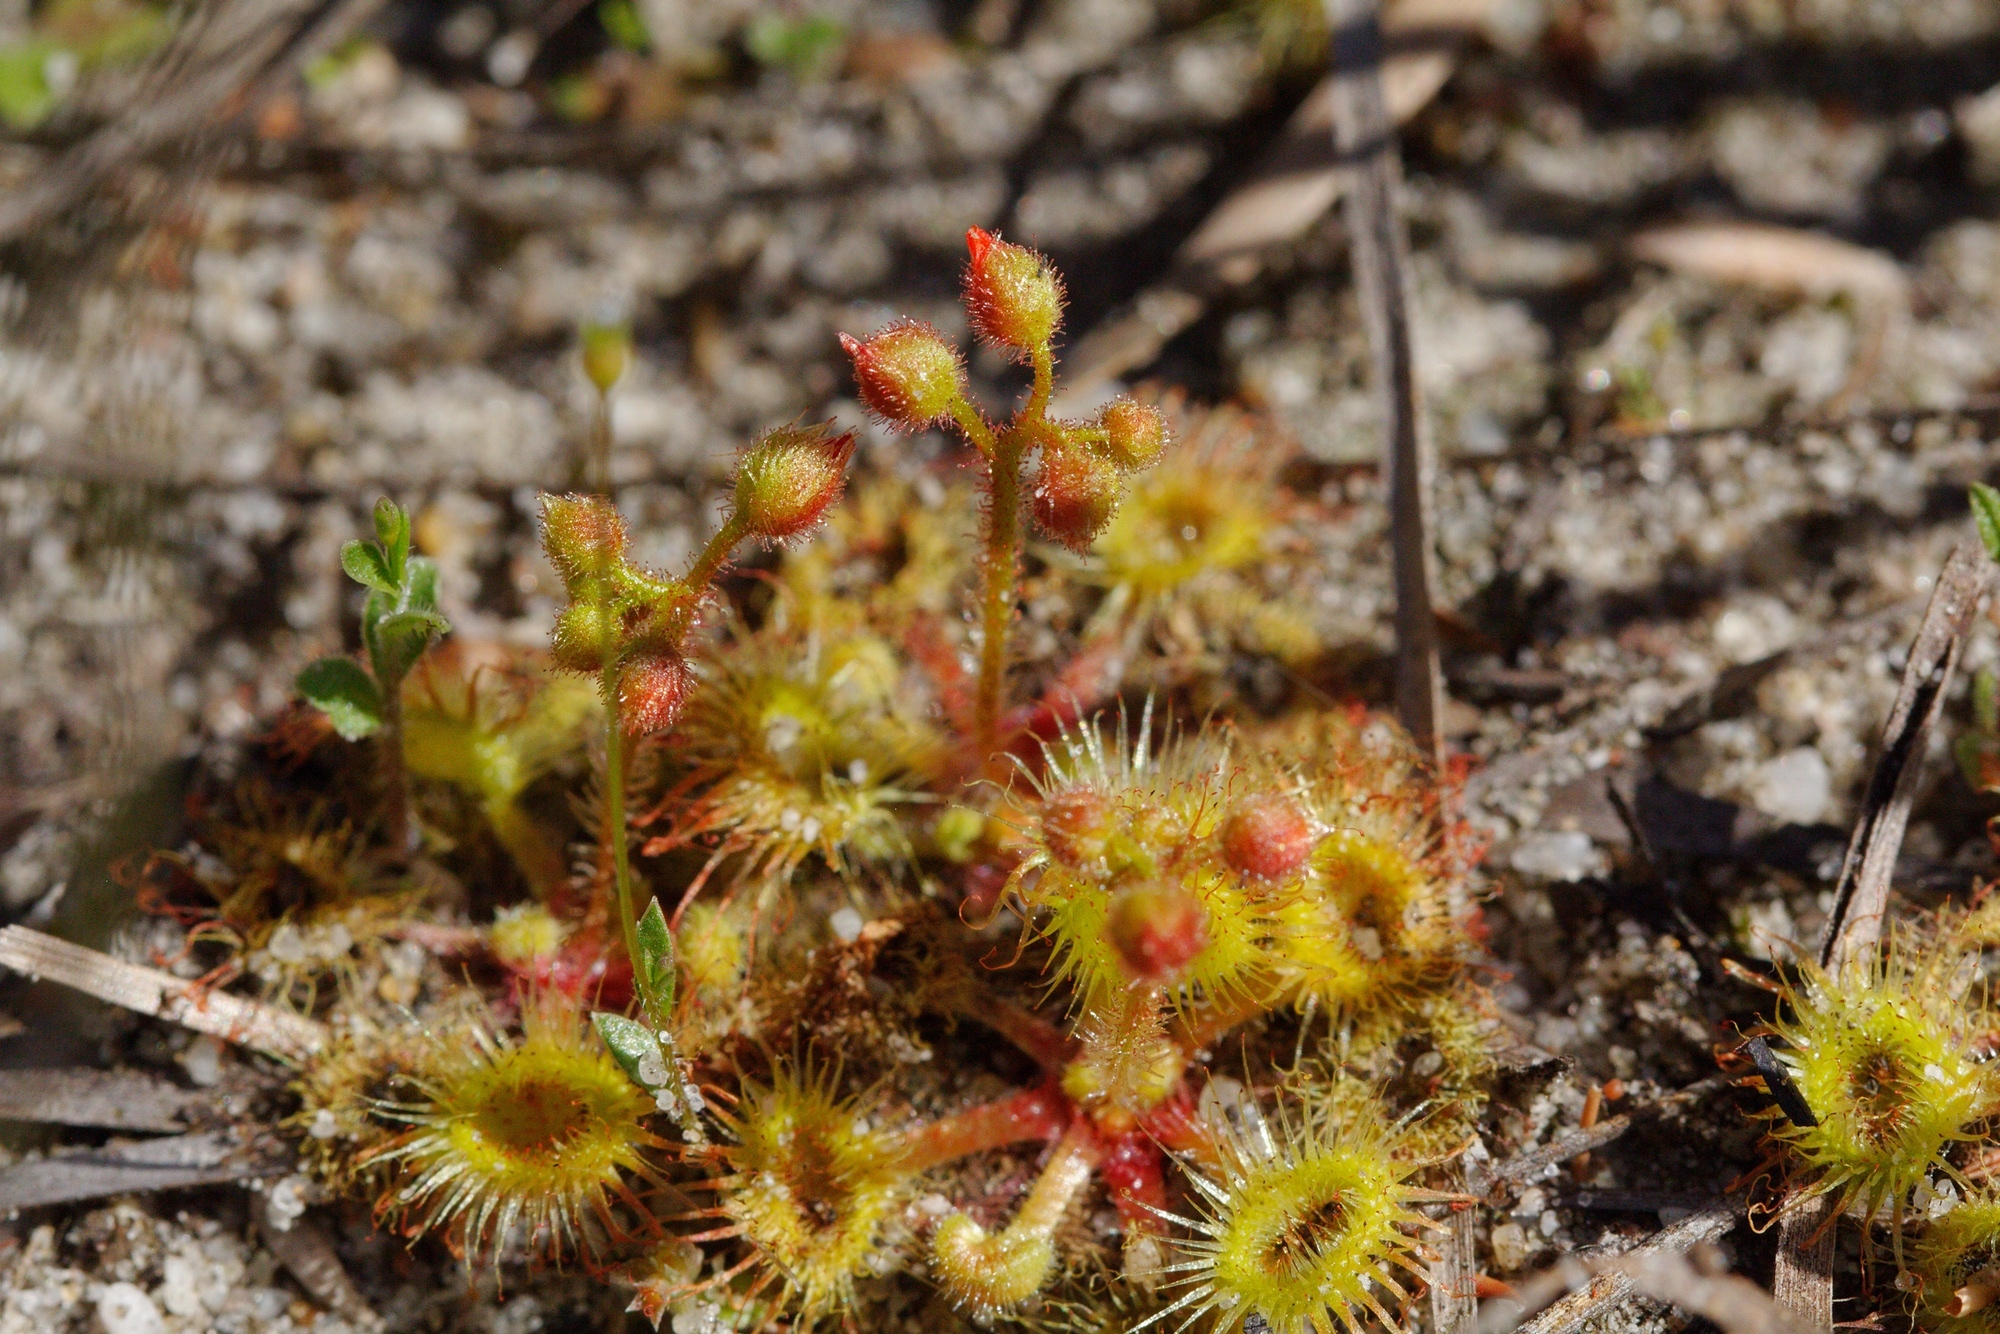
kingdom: Plantae
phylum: Tracheophyta
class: Magnoliopsida
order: Caryophyllales
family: Droseraceae
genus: Drosera
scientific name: Drosera glanduligera
